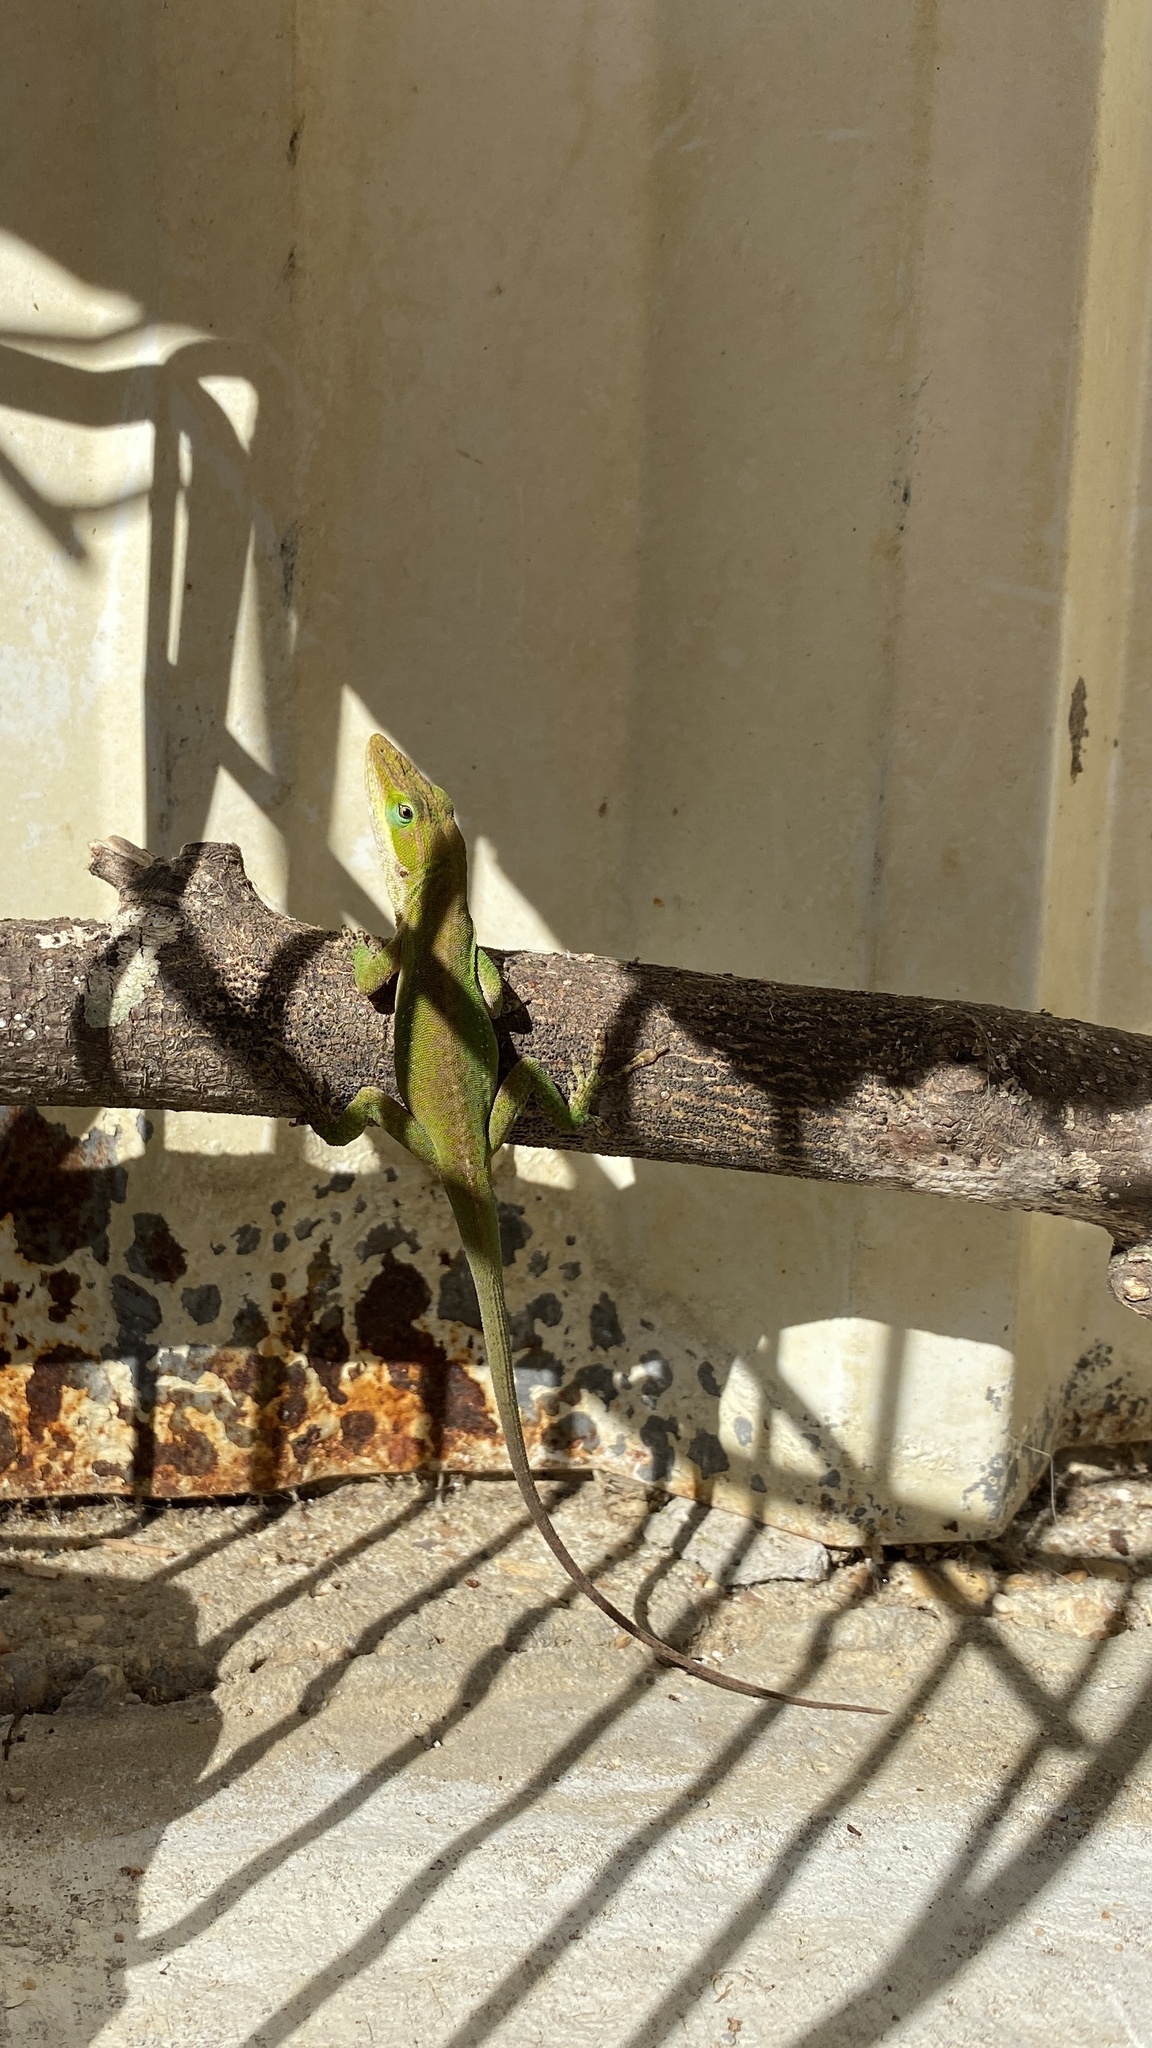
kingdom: Animalia
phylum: Chordata
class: Squamata
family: Dactyloidae
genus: Anolis
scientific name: Anolis carolinensis
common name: Green anole
